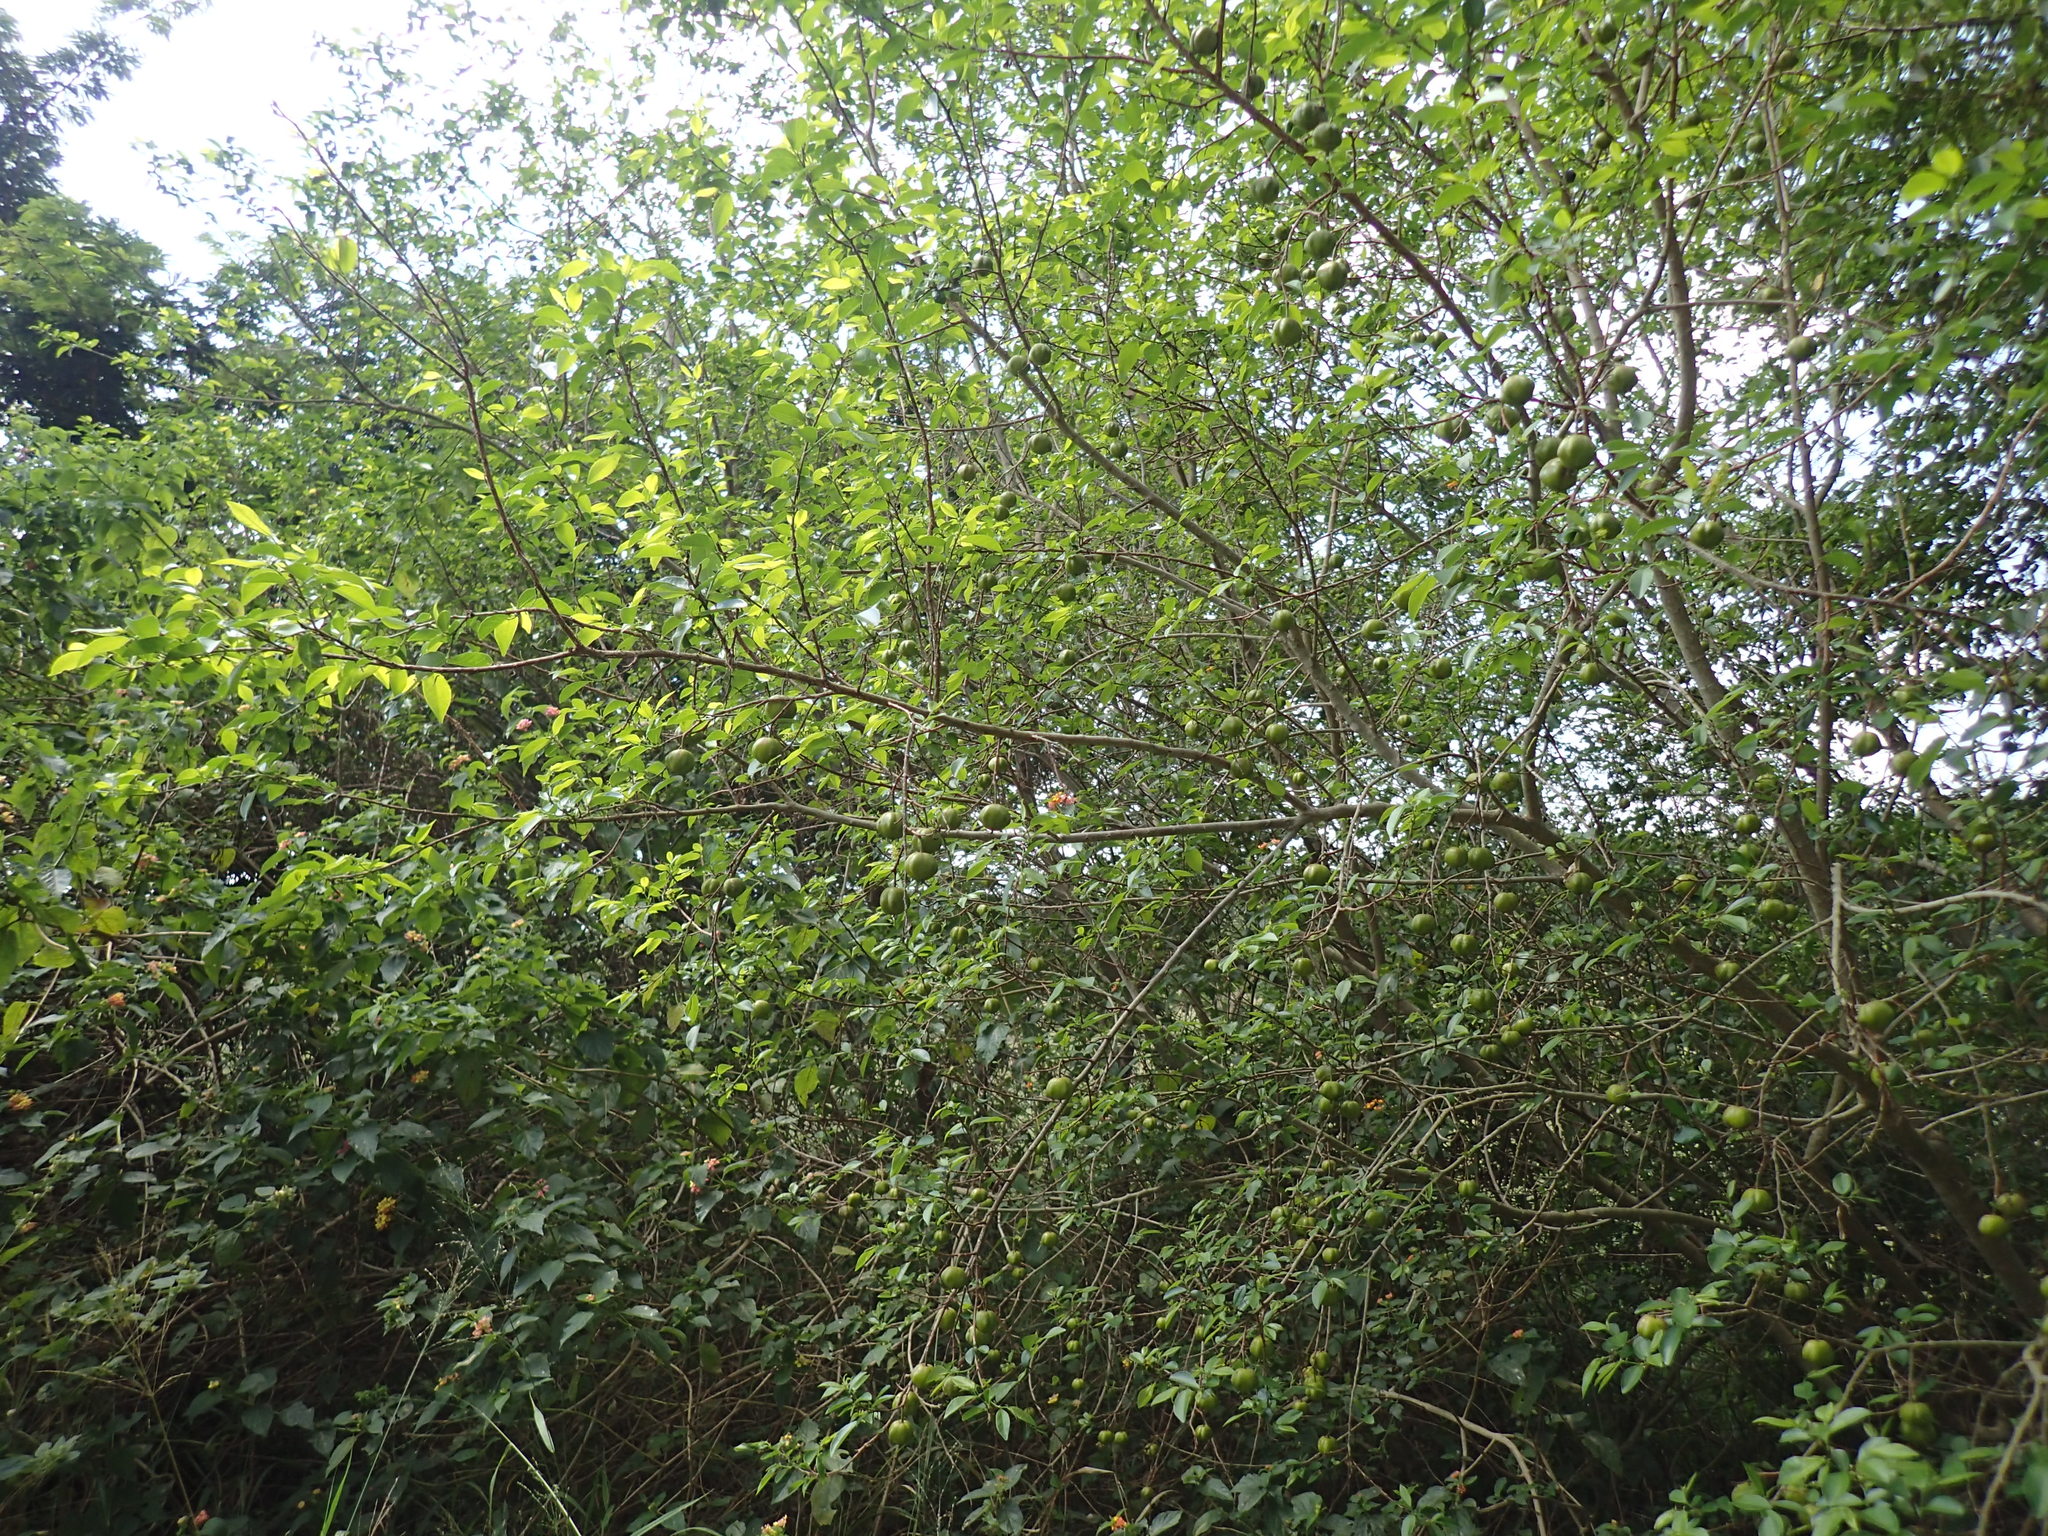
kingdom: Plantae
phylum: Tracheophyta
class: Magnoliopsida
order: Malpighiales
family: Euphorbiaceae
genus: Sclerocroton
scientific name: Sclerocroton integerrimus
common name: Duiker berry
